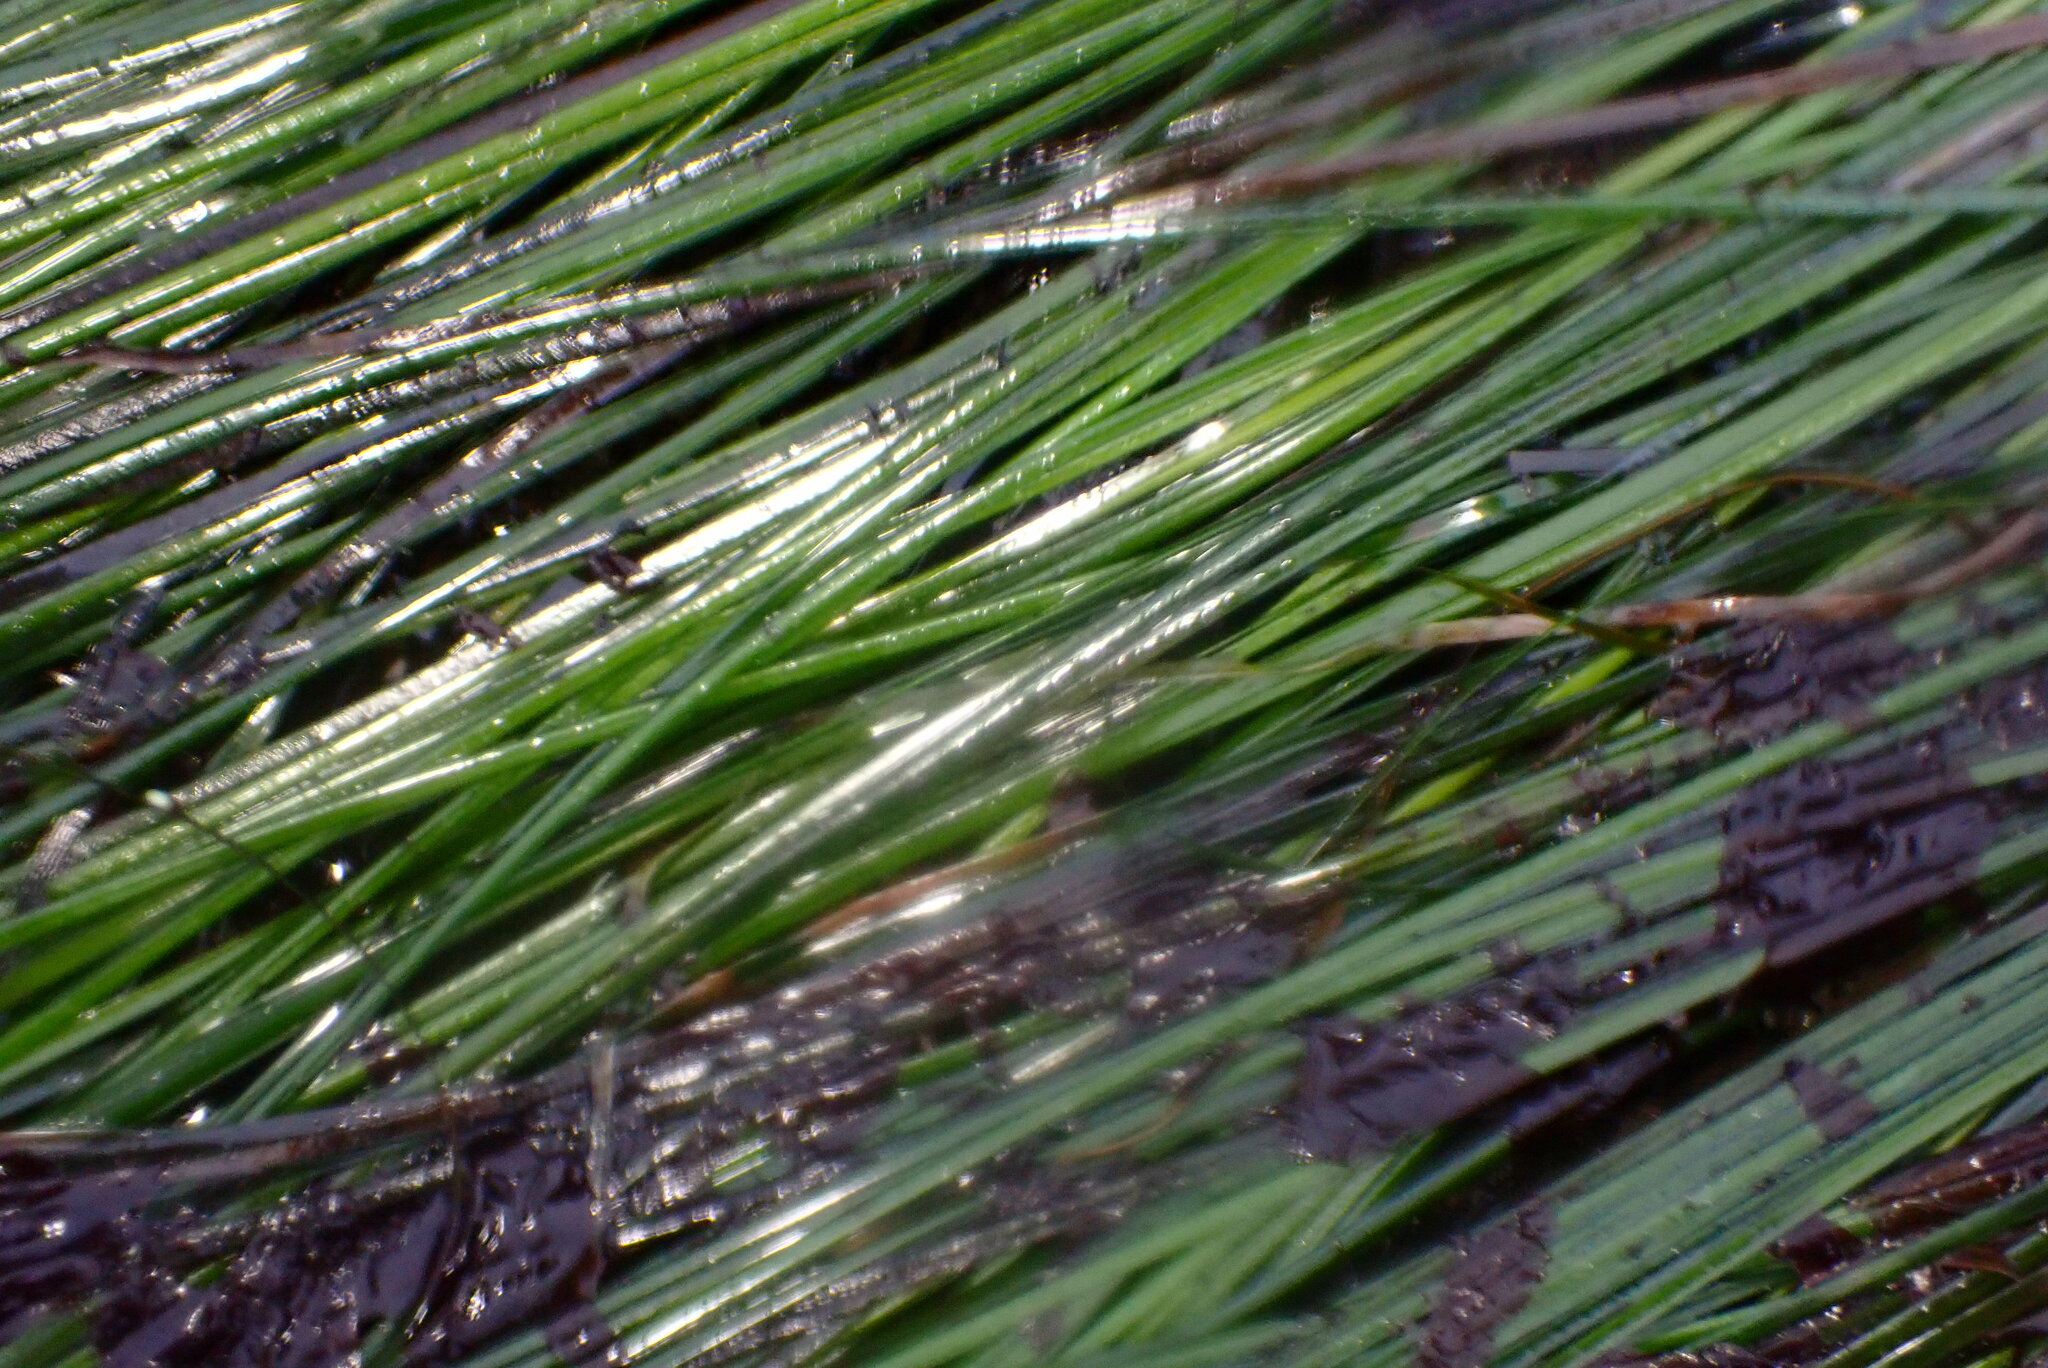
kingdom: Plantae
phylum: Tracheophyta
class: Liliopsida
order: Alismatales
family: Zosteraceae
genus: Phyllospadix
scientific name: Phyllospadix torreyi
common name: Surfgrass
